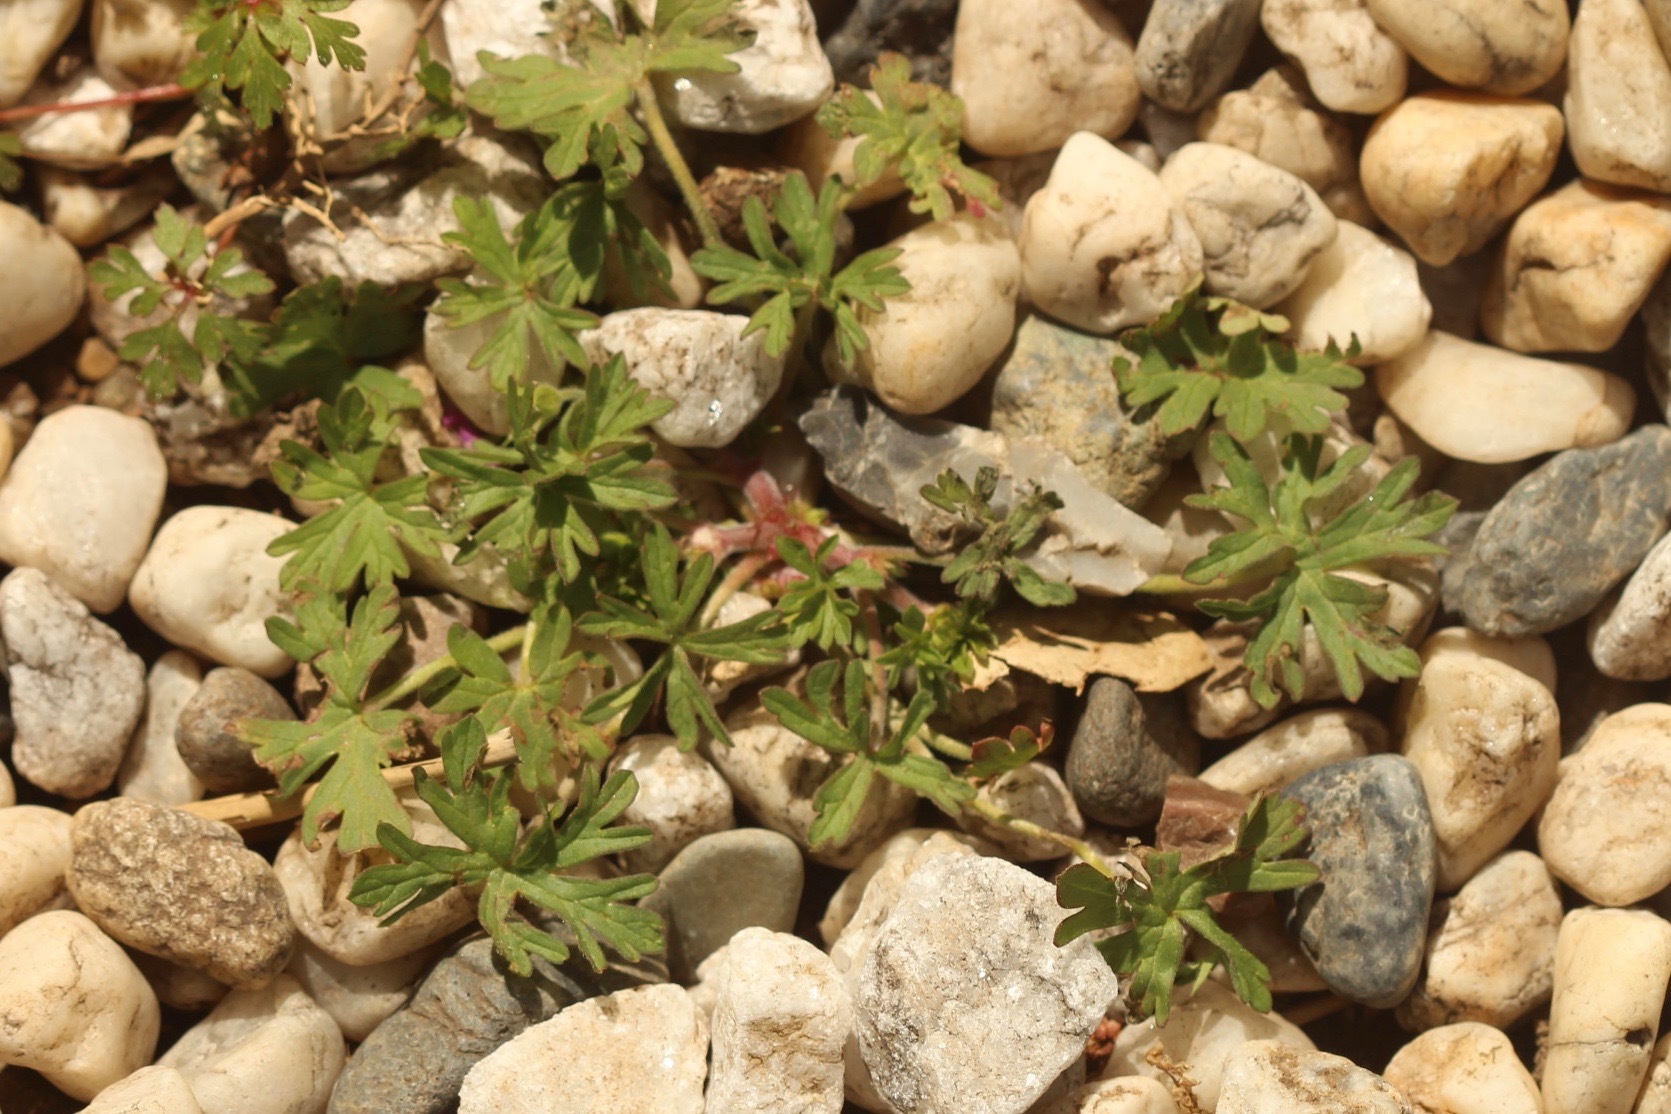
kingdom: Plantae
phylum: Tracheophyta
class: Magnoliopsida
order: Geraniales
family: Geraniaceae
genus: Geranium
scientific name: Geranium
